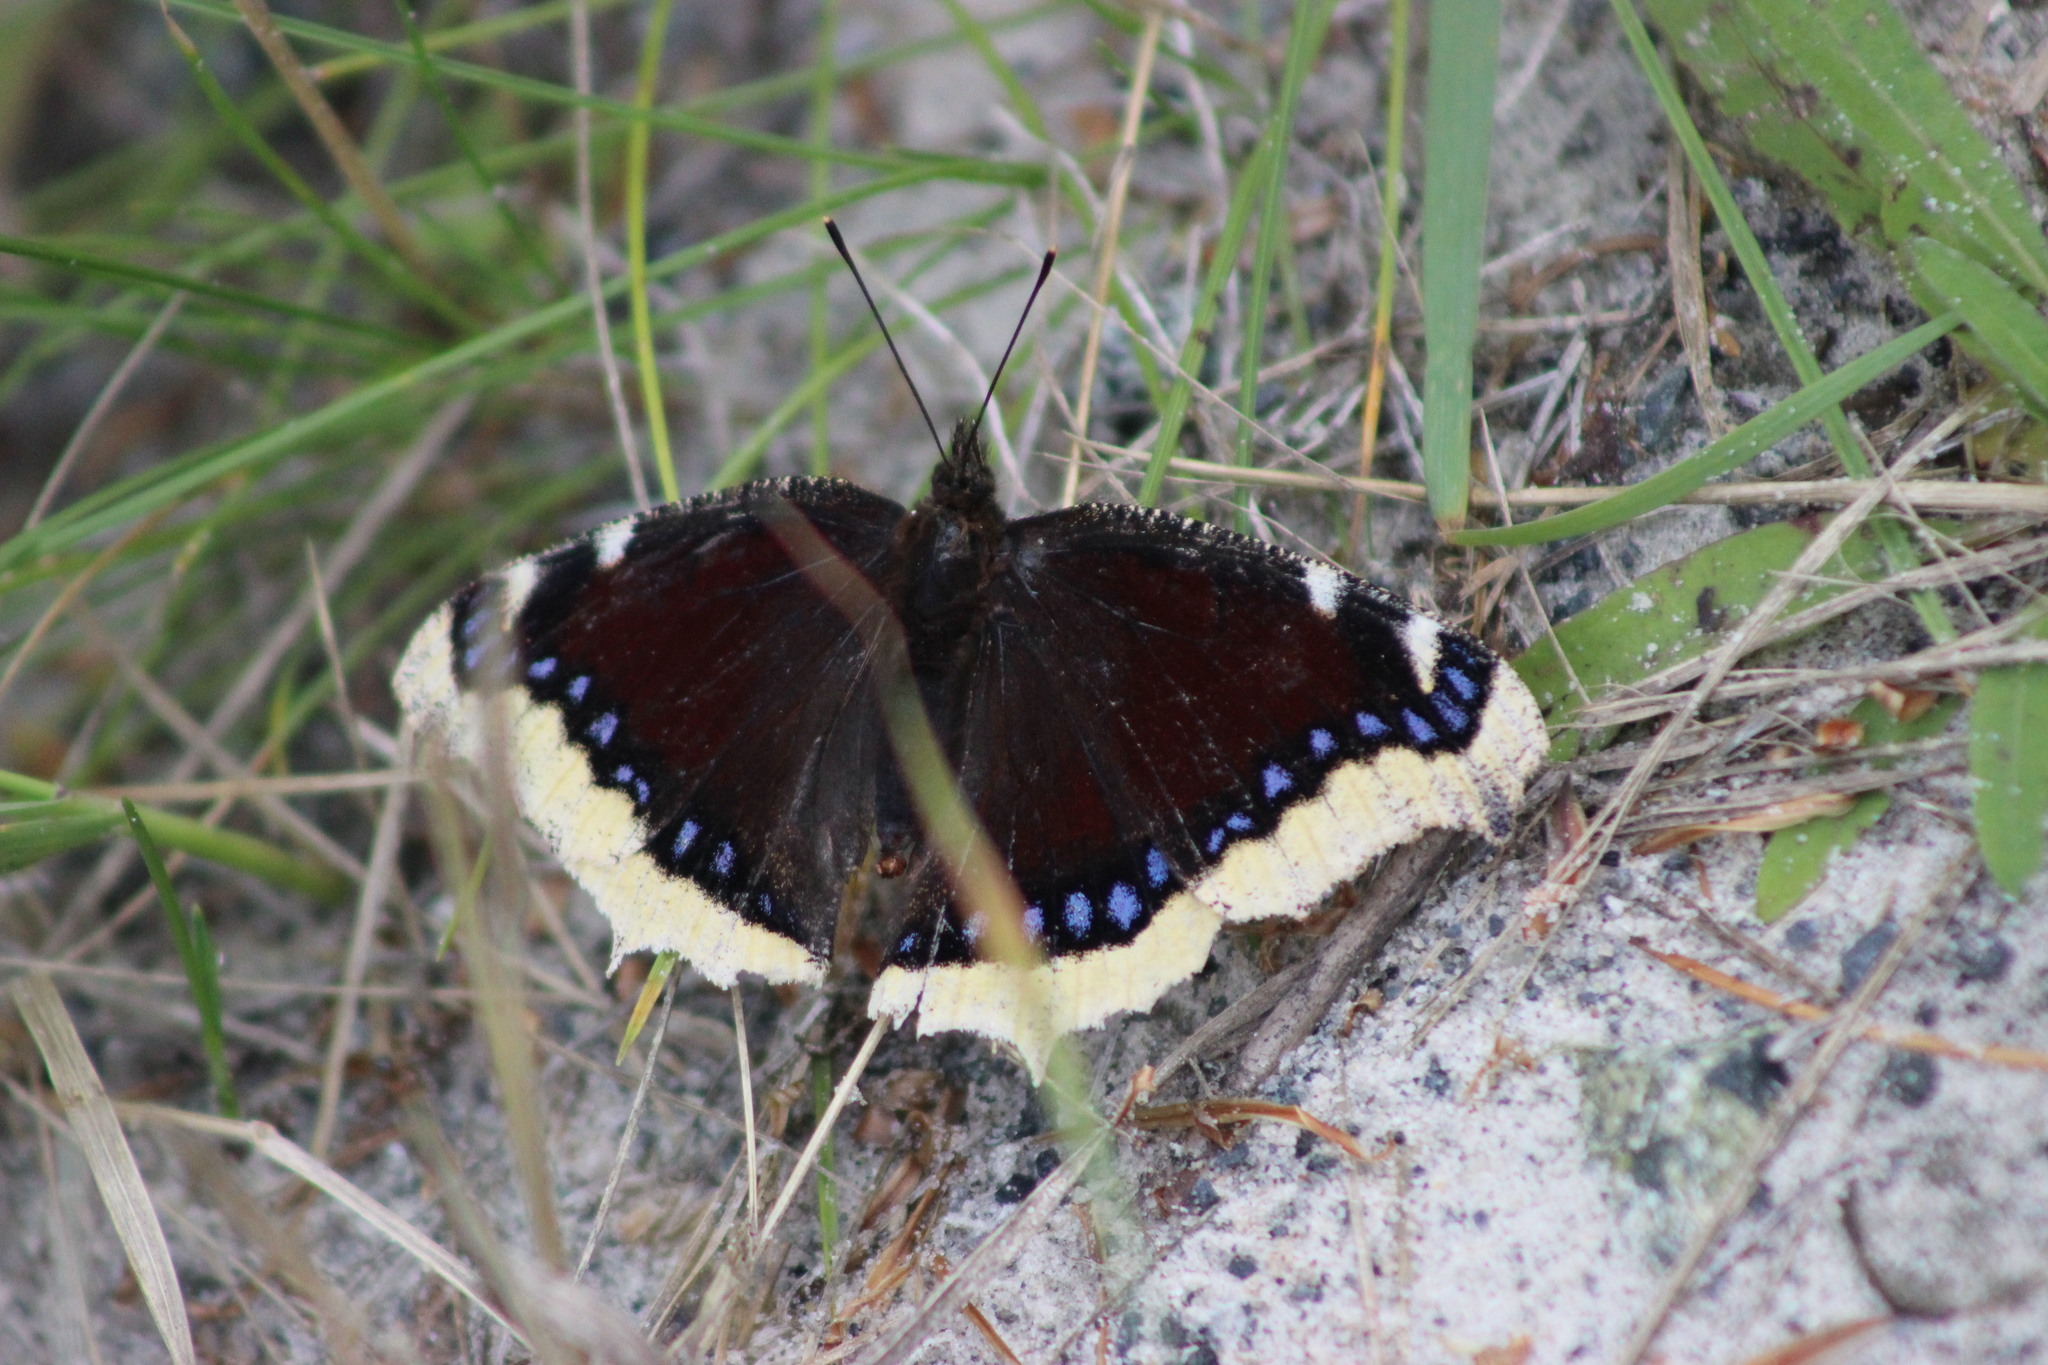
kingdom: Animalia
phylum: Arthropoda
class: Insecta
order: Lepidoptera
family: Nymphalidae
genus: Nymphalis
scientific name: Nymphalis antiopa
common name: Camberwell beauty
